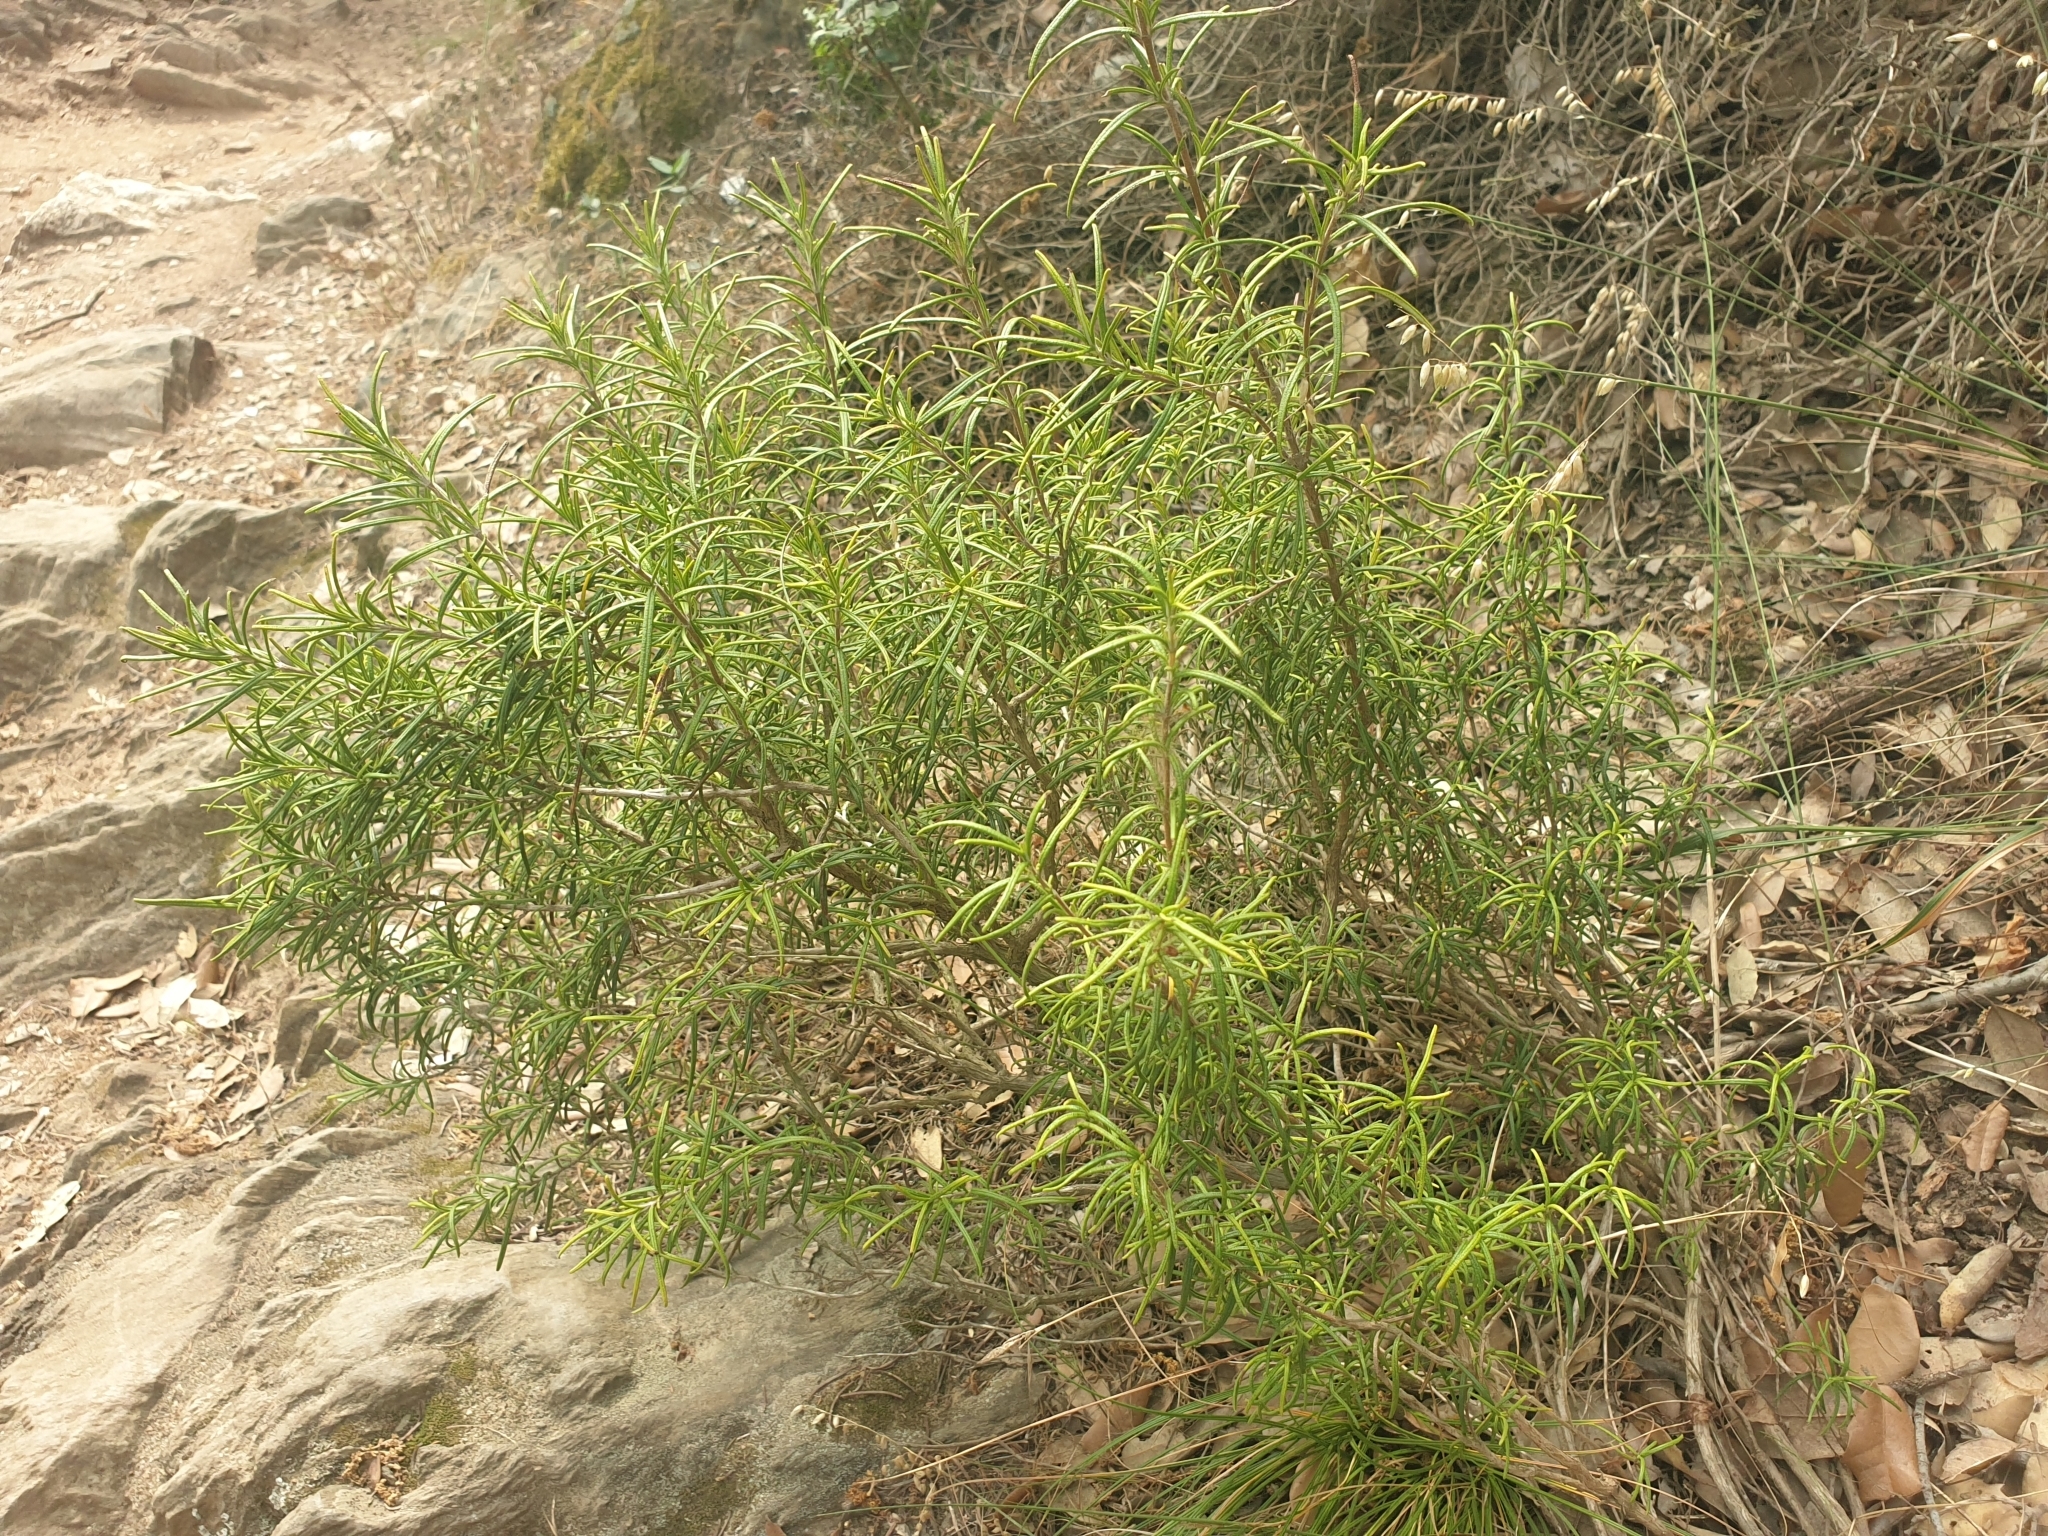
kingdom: Plantae
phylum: Tracheophyta
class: Magnoliopsida
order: Lamiales
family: Lamiaceae
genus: Salvia
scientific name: Salvia rosmarinus
